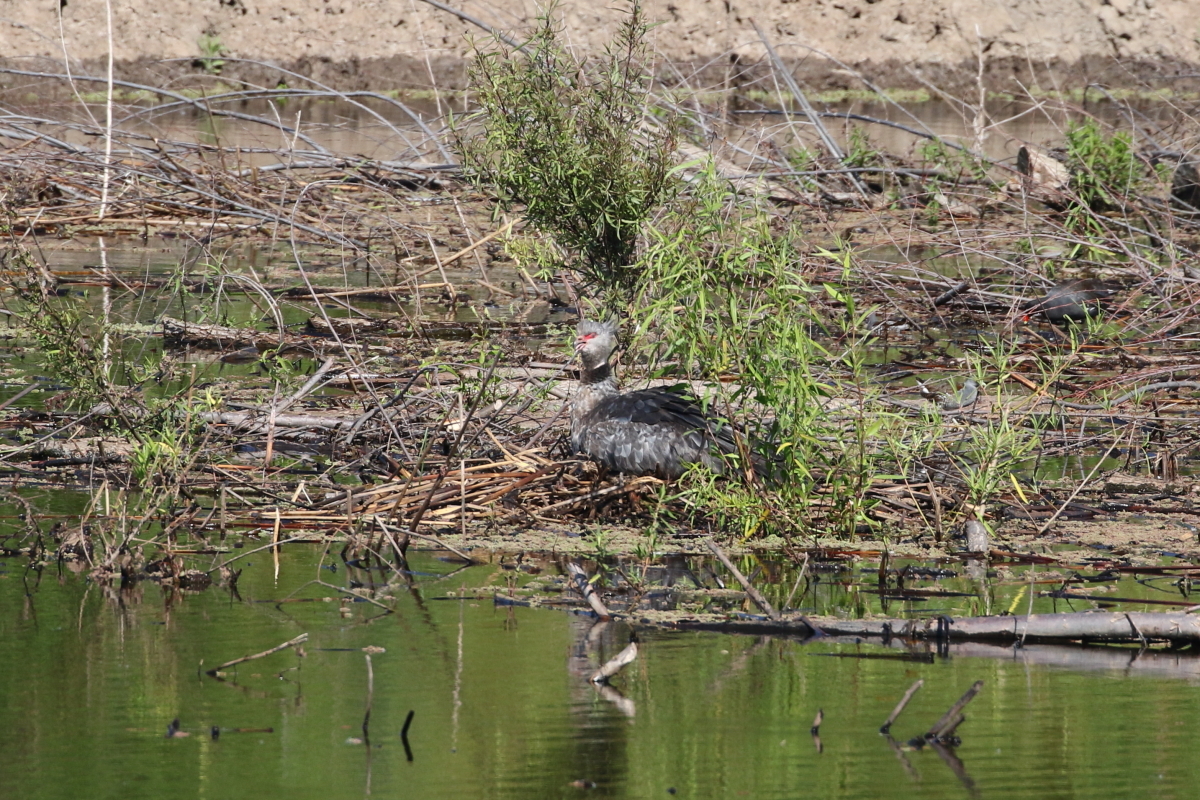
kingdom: Animalia
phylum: Chordata
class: Aves
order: Anseriformes
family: Anhimidae
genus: Chauna
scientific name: Chauna torquata
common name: Southern screamer
